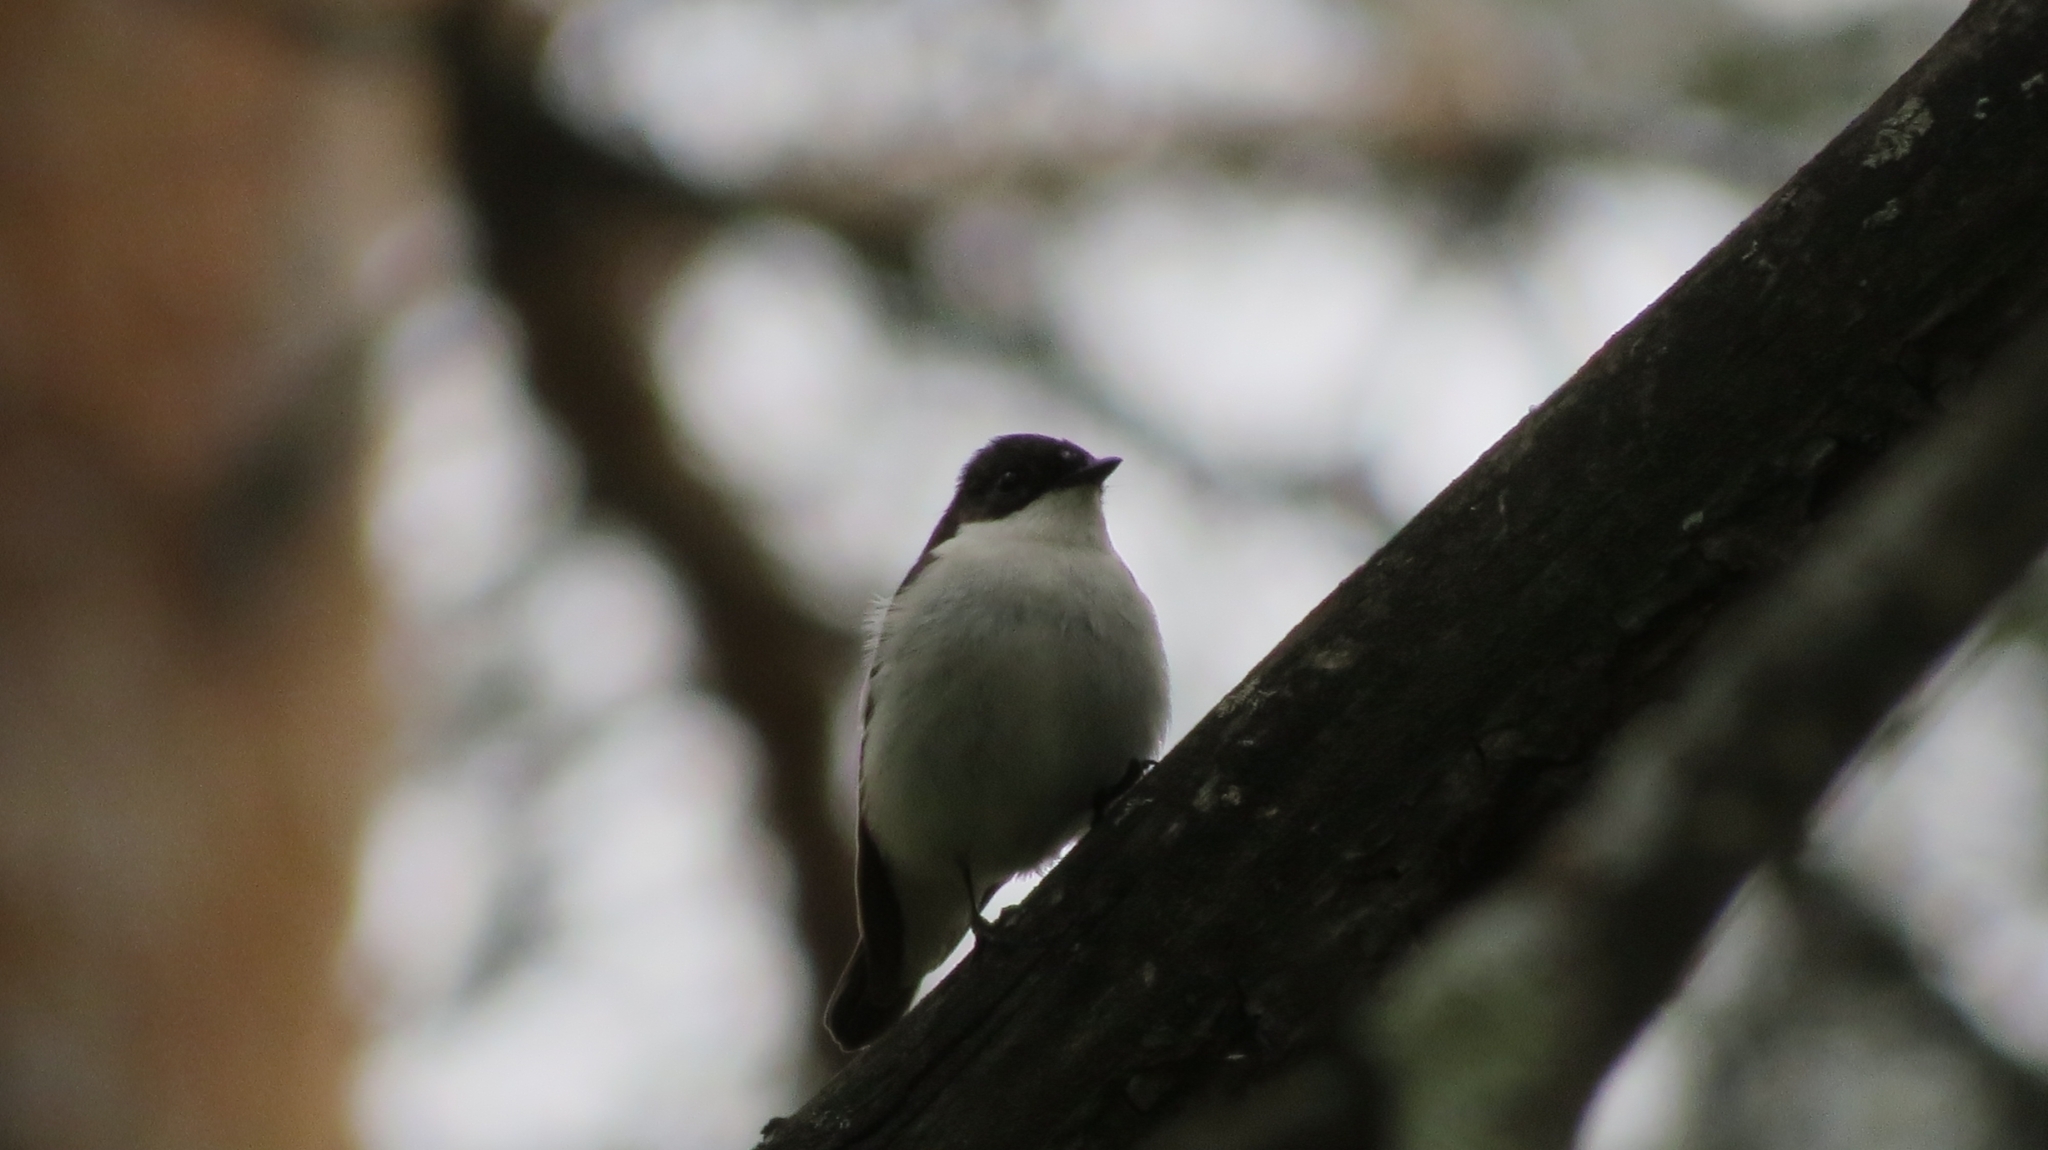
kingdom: Animalia
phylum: Chordata
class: Aves
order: Passeriformes
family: Muscicapidae
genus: Ficedula
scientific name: Ficedula hypoleuca
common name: European pied flycatcher
